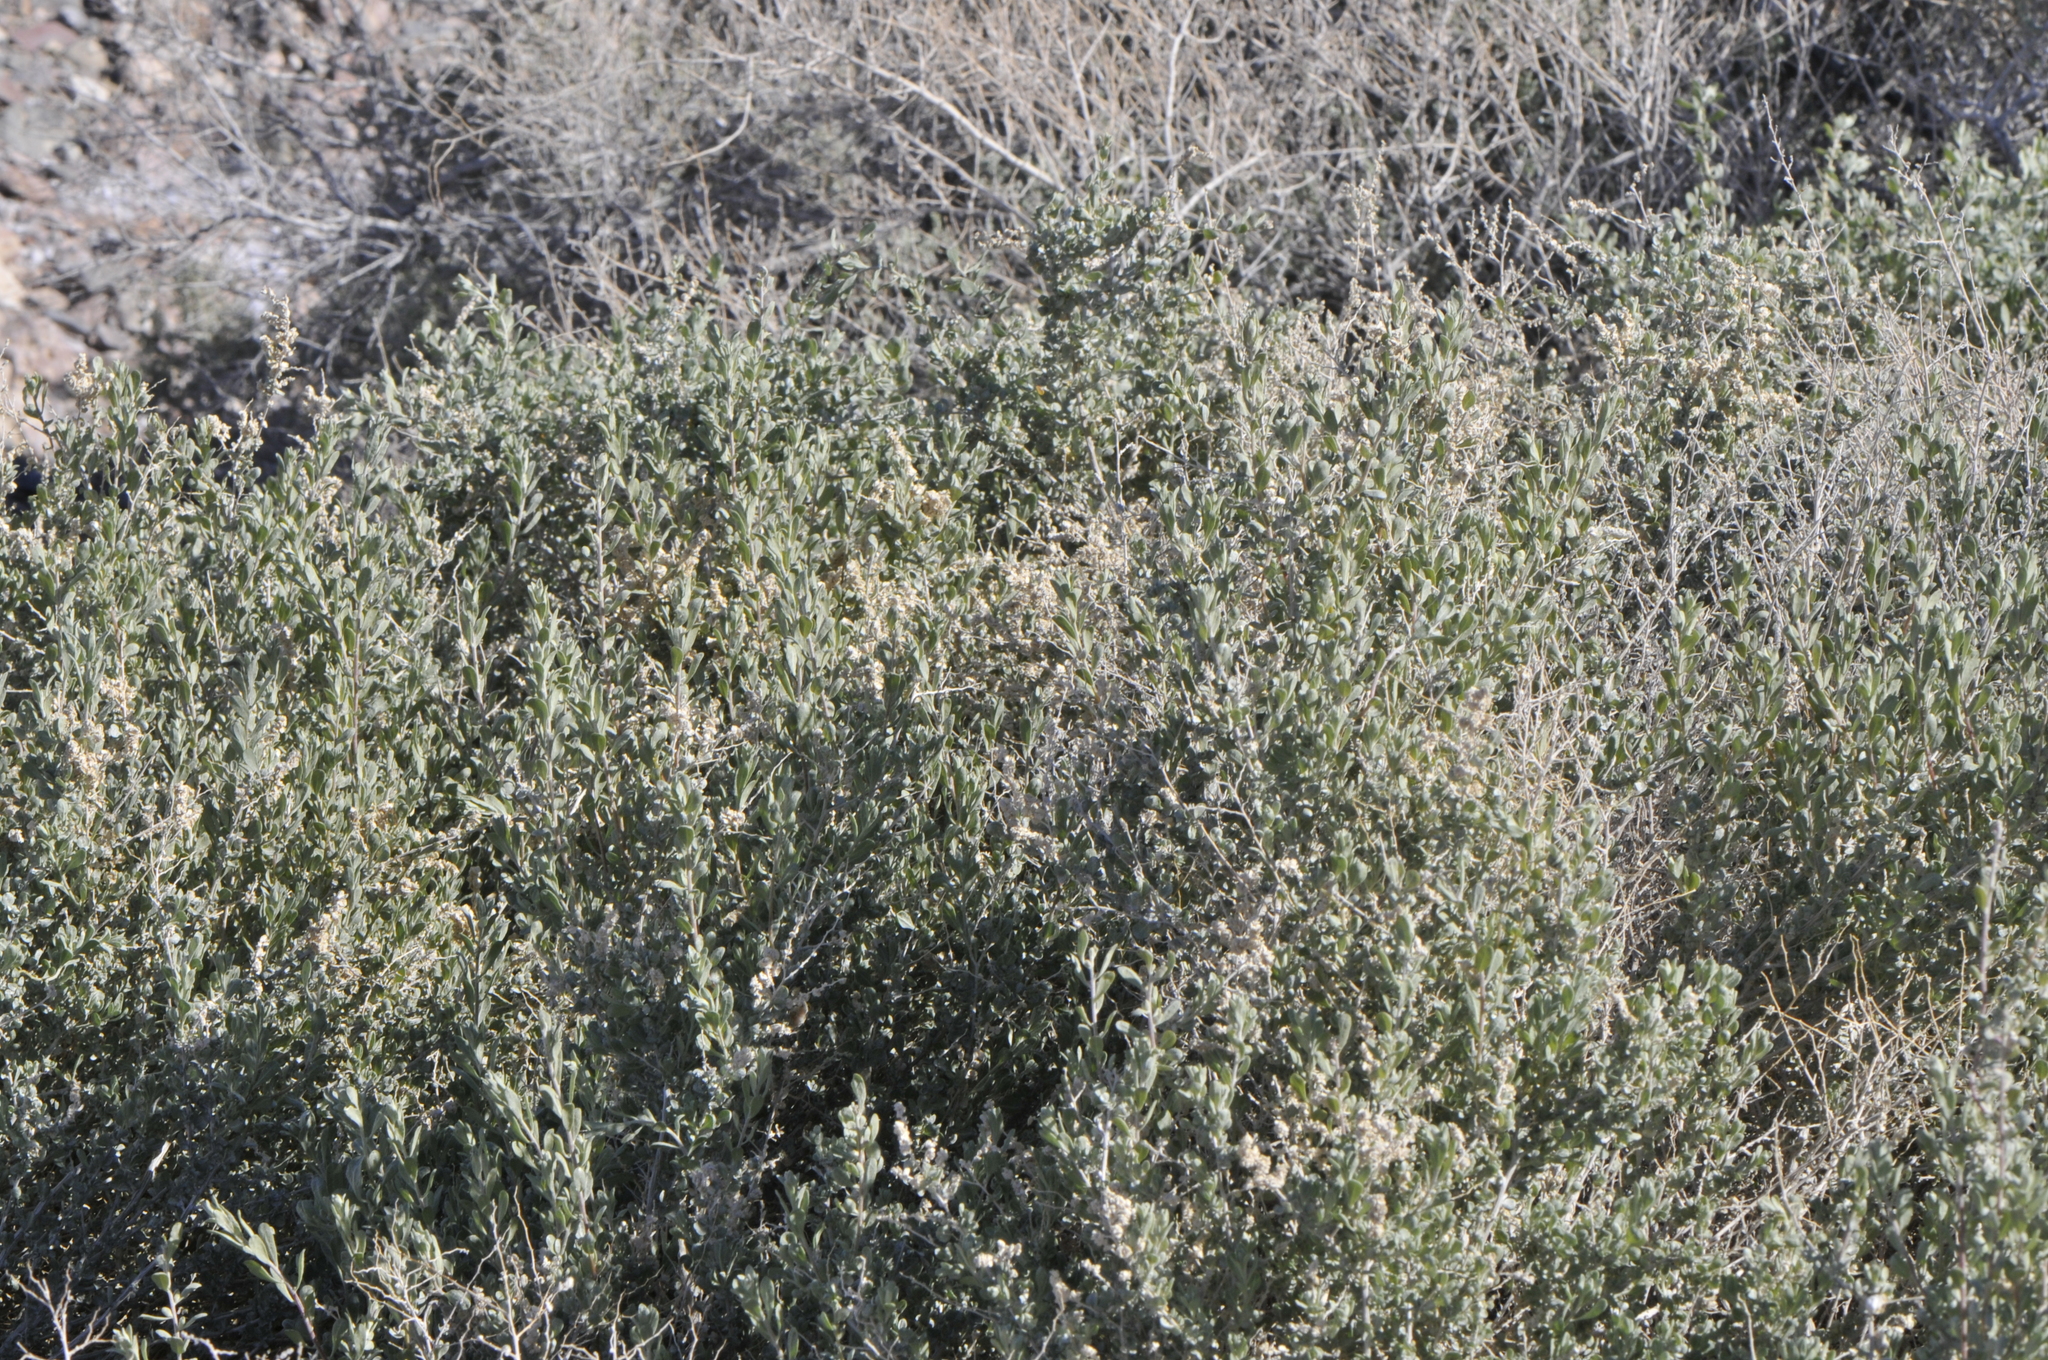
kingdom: Plantae
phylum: Tracheophyta
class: Magnoliopsida
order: Caryophyllales
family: Amaranthaceae
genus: Atriplex
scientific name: Atriplex polycarpa
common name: Desert saltbush
